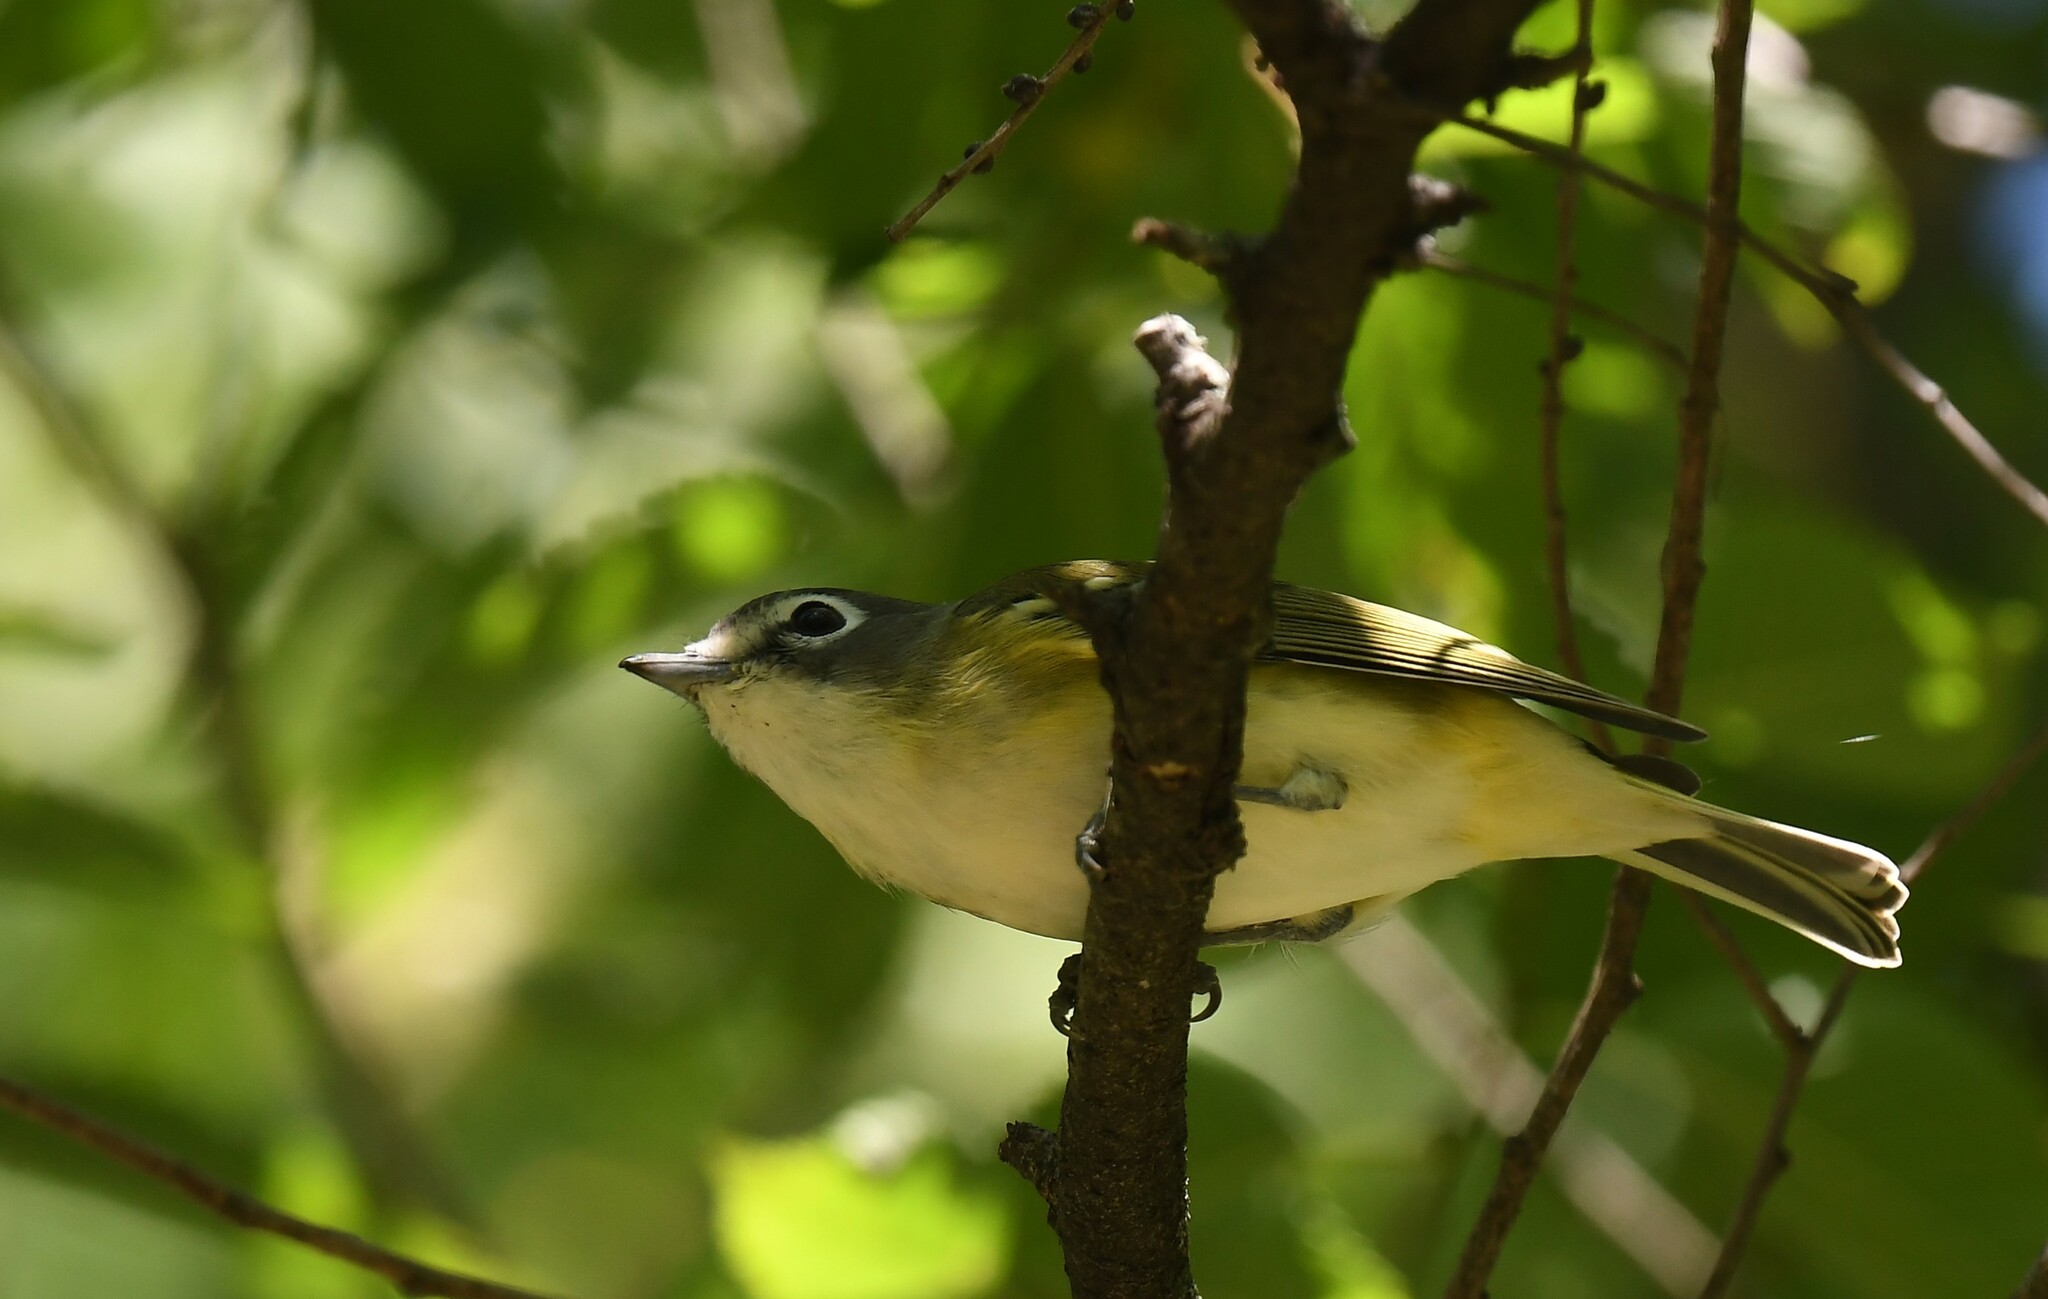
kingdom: Animalia
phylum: Chordata
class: Aves
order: Passeriformes
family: Vireonidae
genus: Vireo
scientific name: Vireo solitarius
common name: Blue-headed vireo
